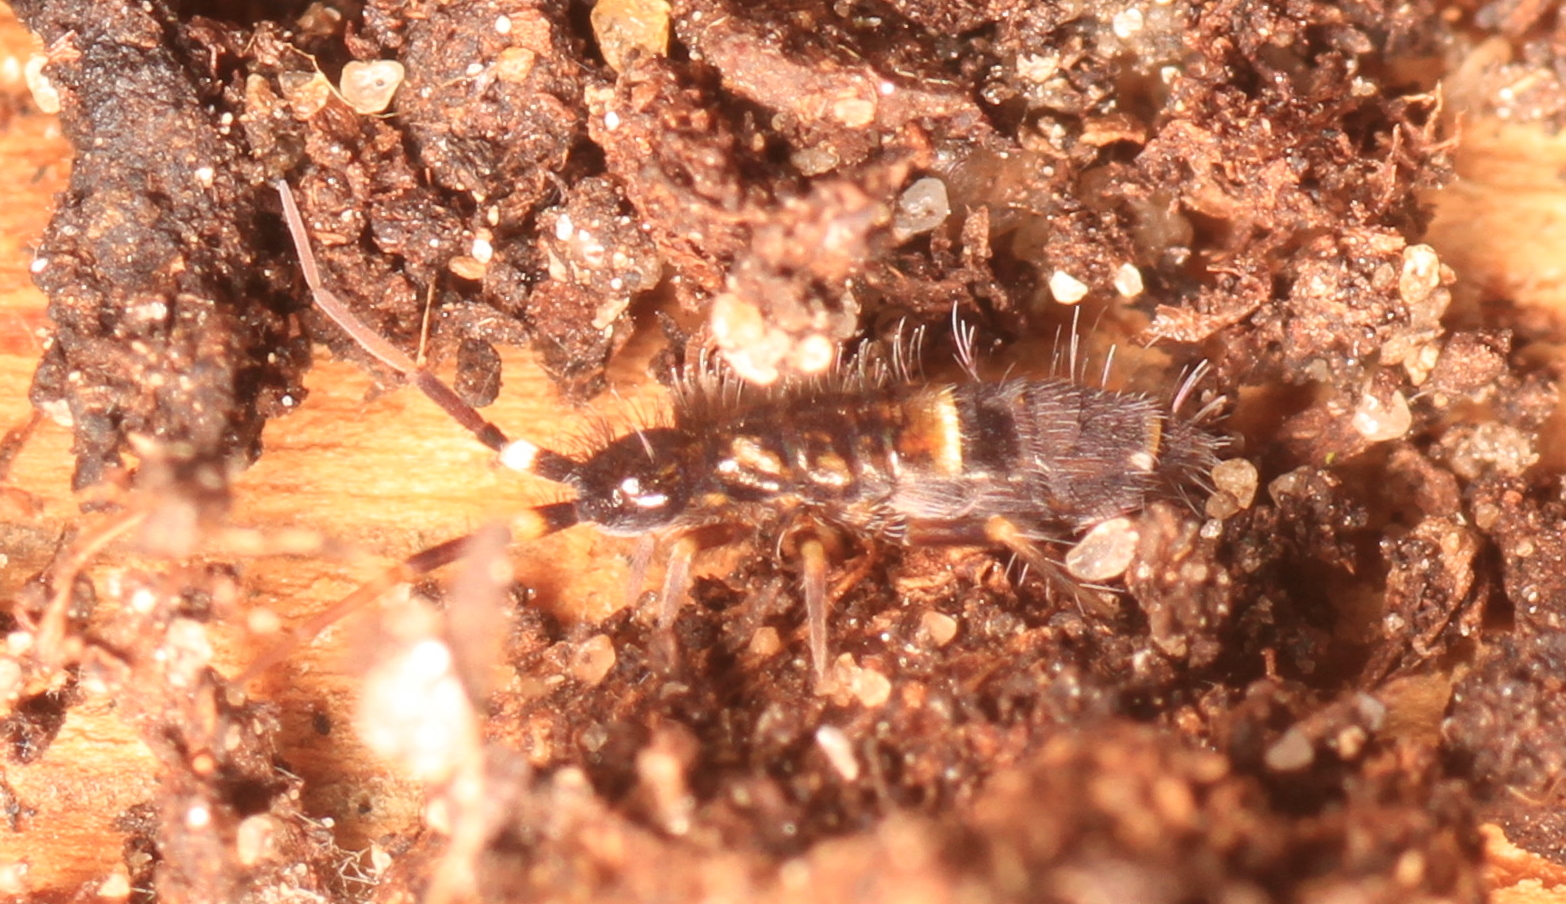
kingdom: Animalia
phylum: Arthropoda
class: Collembola
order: Entomobryomorpha
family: Orchesellidae
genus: Orchesella
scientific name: Orchesella cincta
